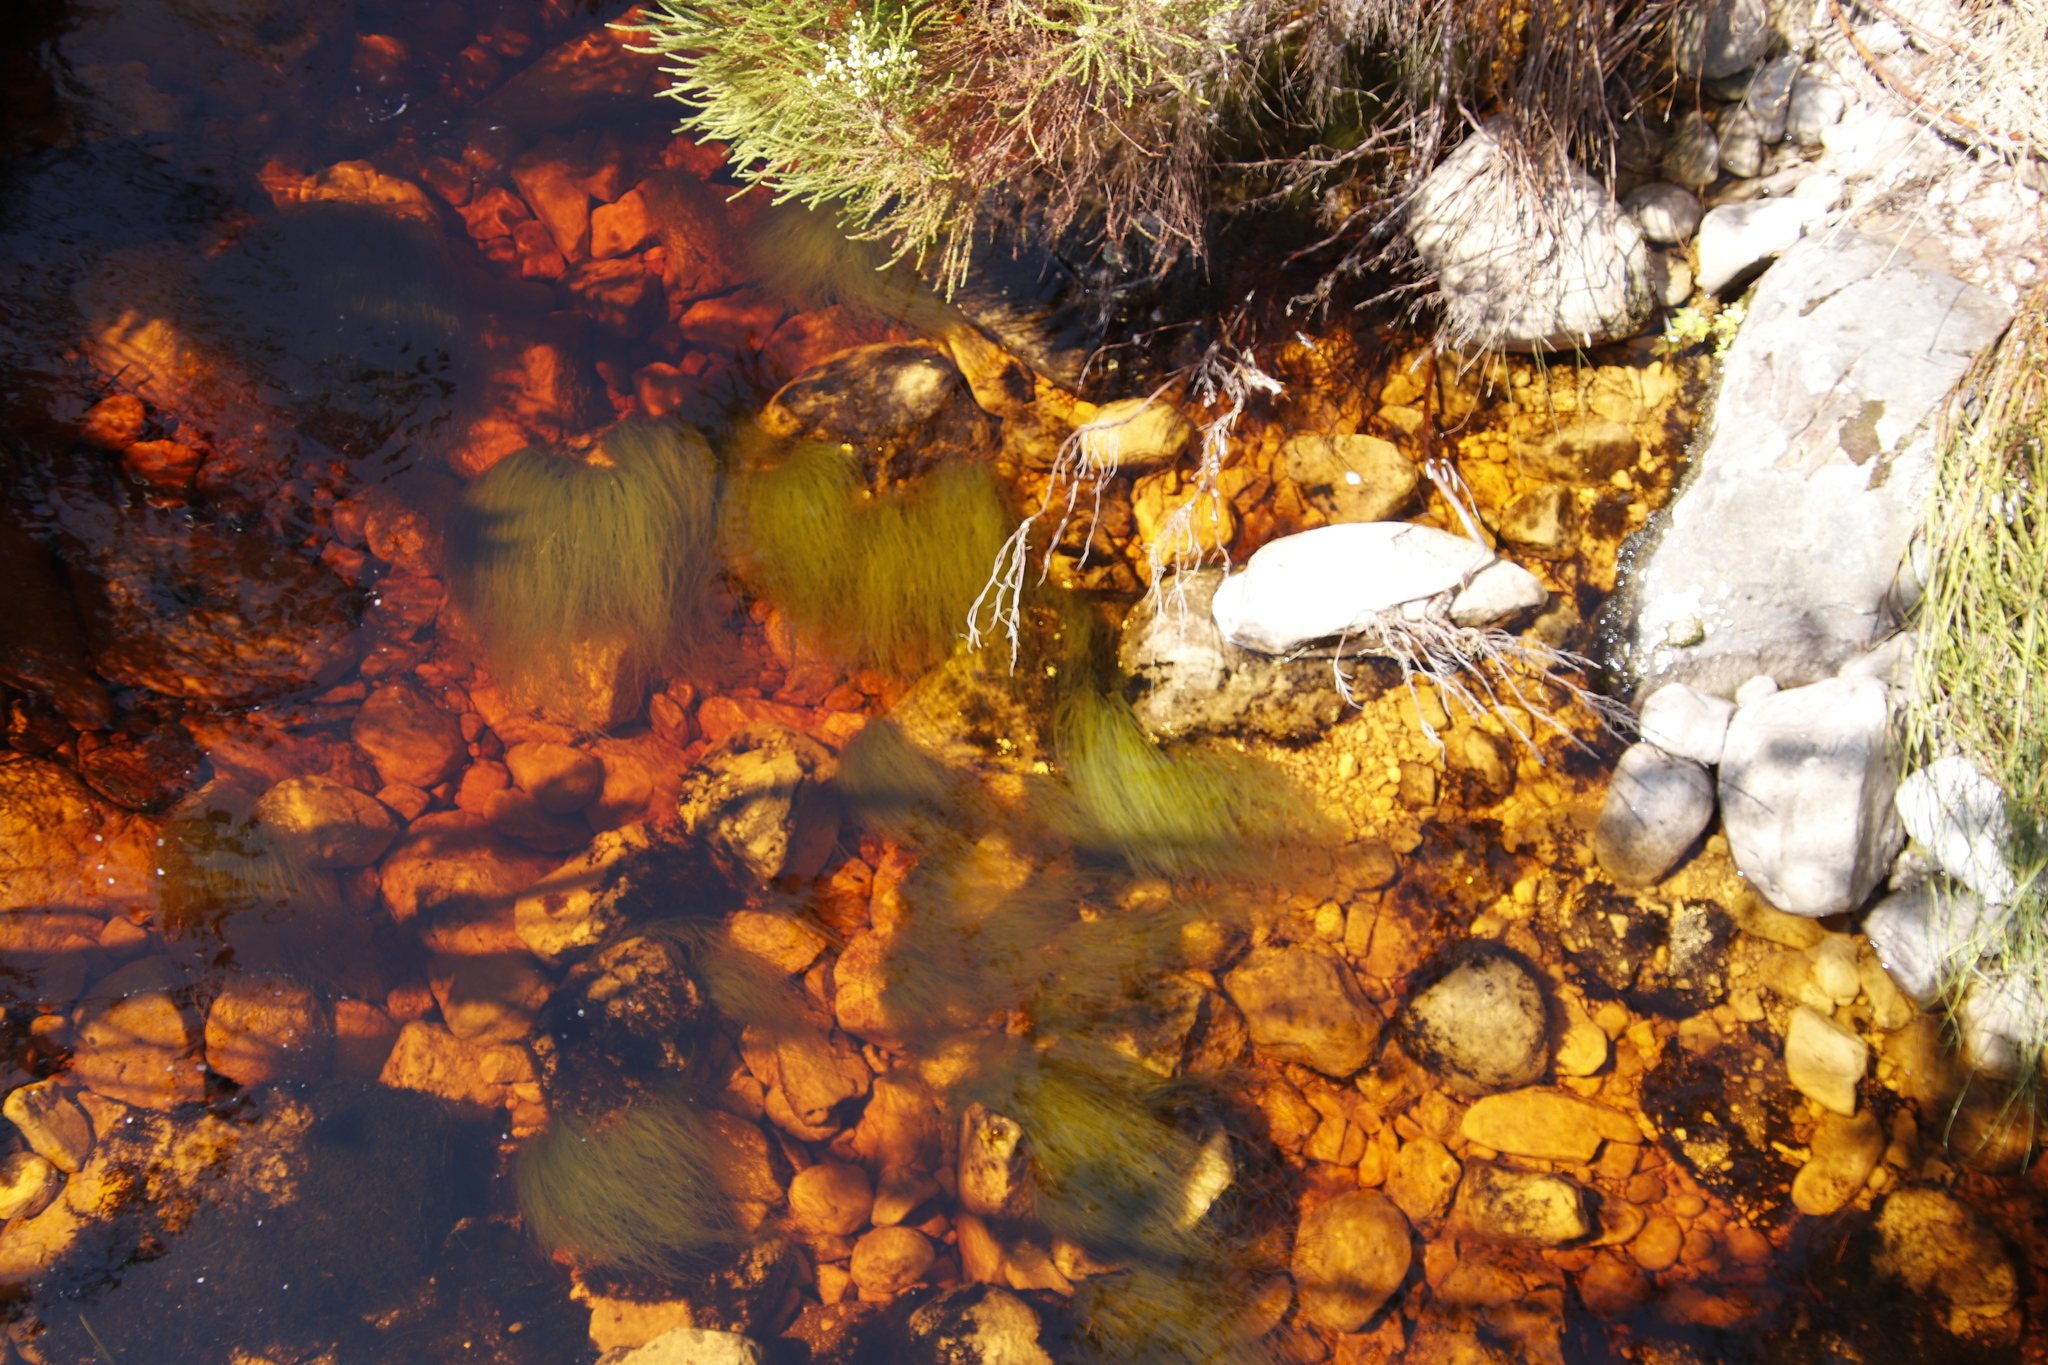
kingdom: Plantae
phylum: Tracheophyta
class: Liliopsida
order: Poales
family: Cyperaceae
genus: Isolepis
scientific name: Isolepis digitata
